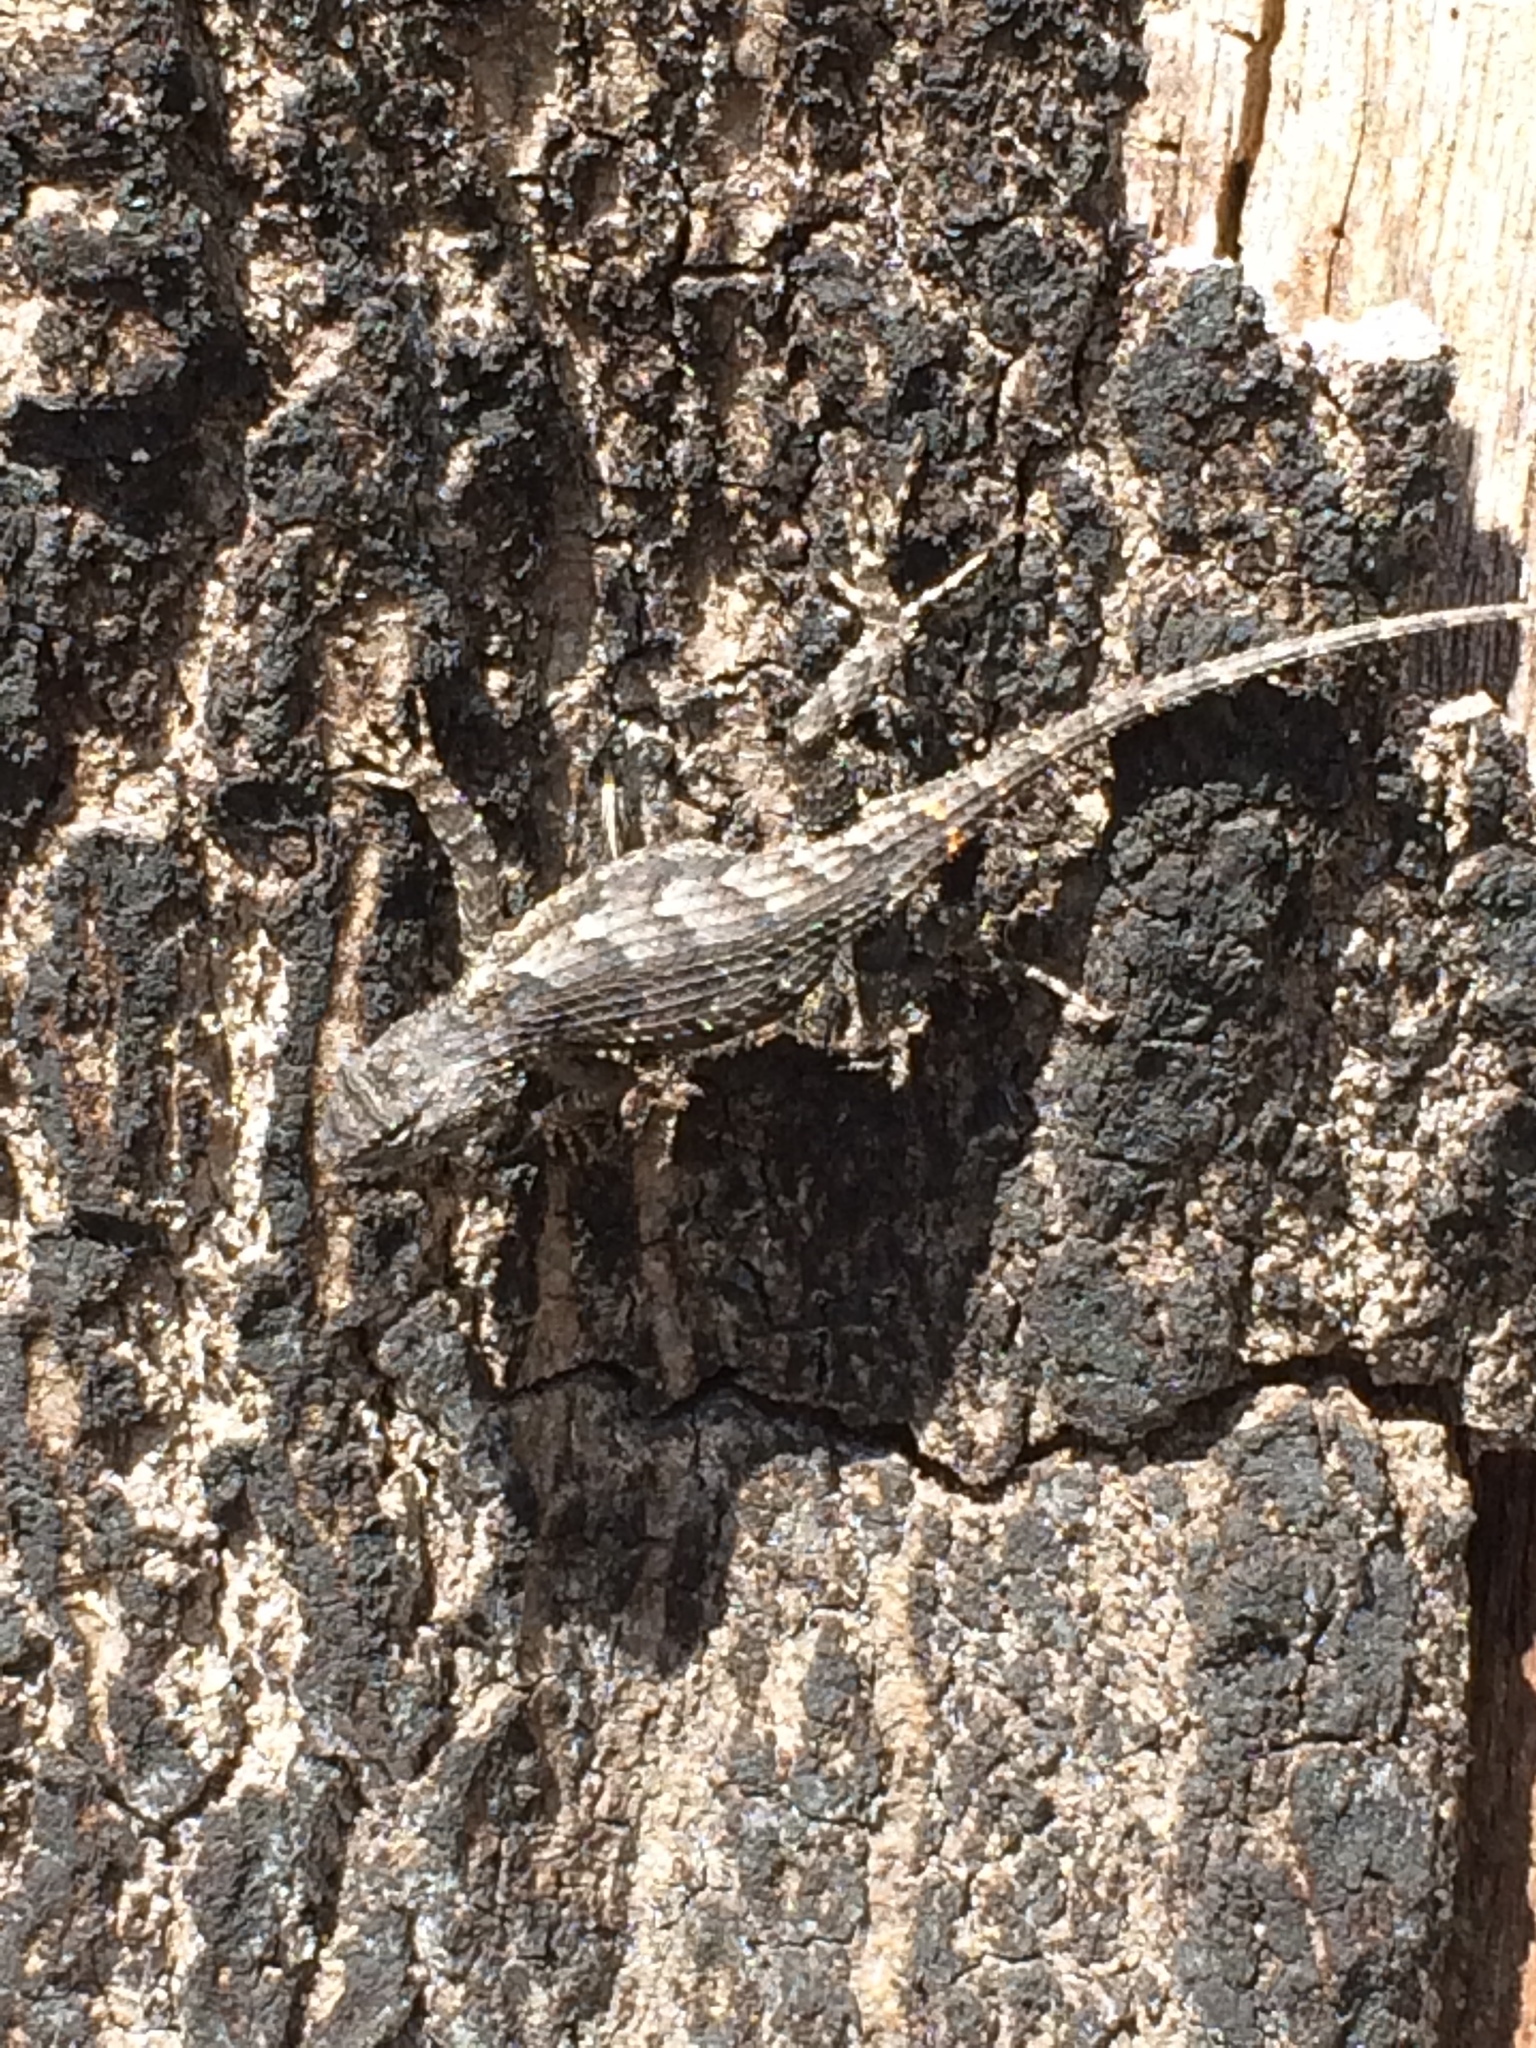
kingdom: Animalia
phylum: Chordata
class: Squamata
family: Phrynosomatidae
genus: Sceloporus
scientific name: Sceloporus undulatus
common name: Eastern fence lizard
